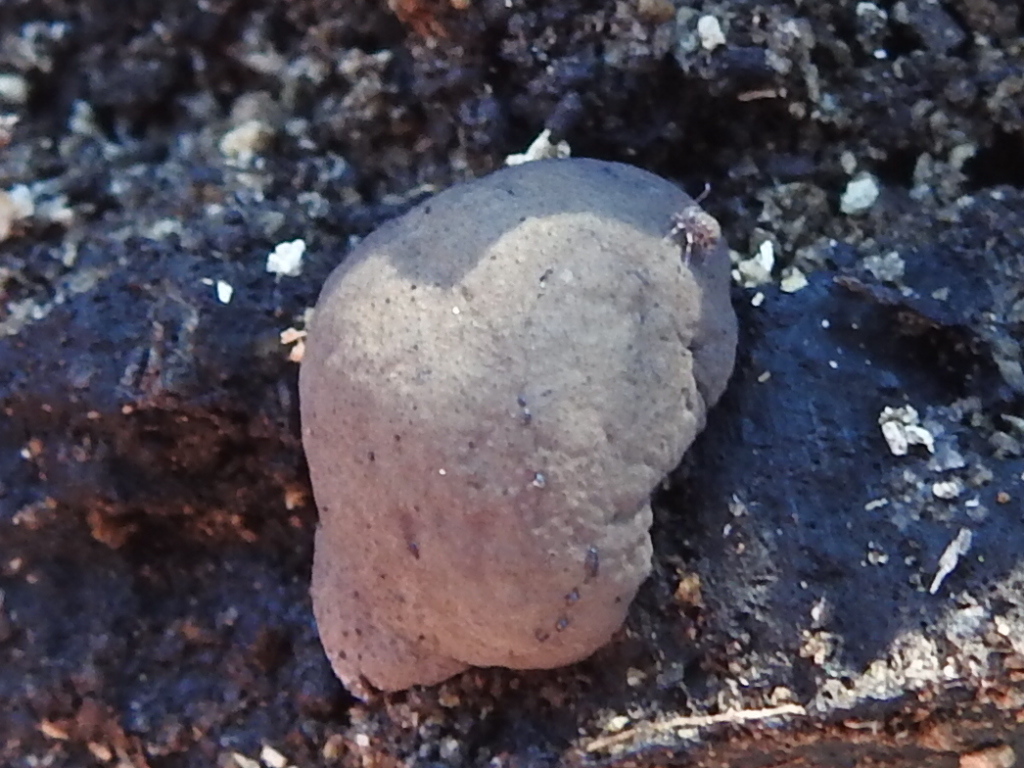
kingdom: Fungi
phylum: Ascomycota
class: Sordariomycetes
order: Xylariales
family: Hypoxylaceae
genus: Daldinia
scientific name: Daldinia
